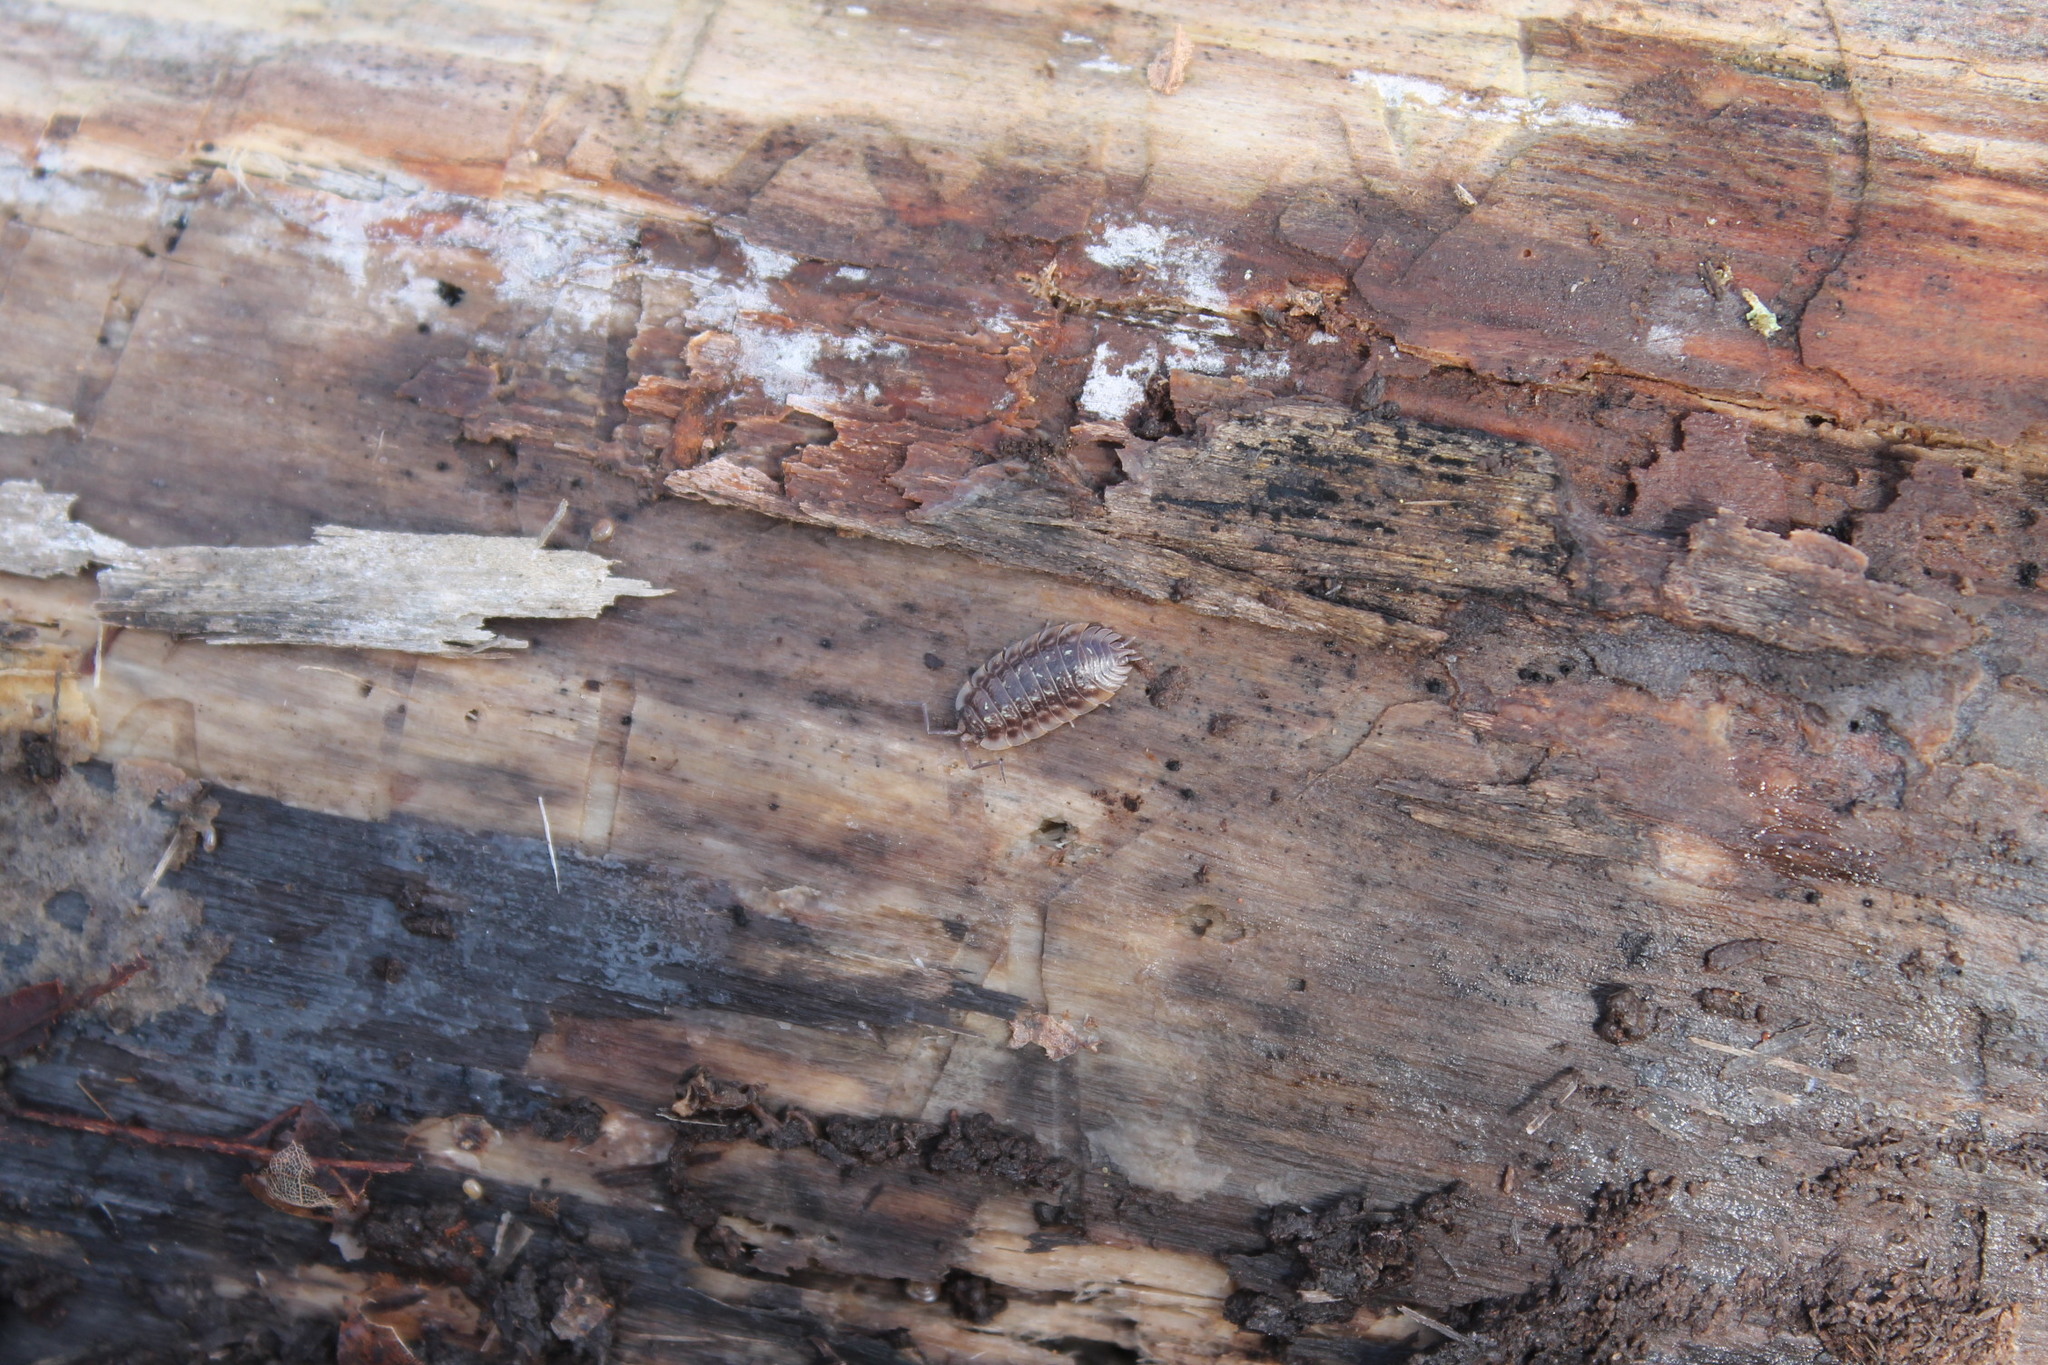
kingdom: Animalia
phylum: Arthropoda
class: Malacostraca
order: Isopoda
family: Oniscidae
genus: Oniscus
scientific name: Oniscus asellus
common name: Common shiny woodlouse
